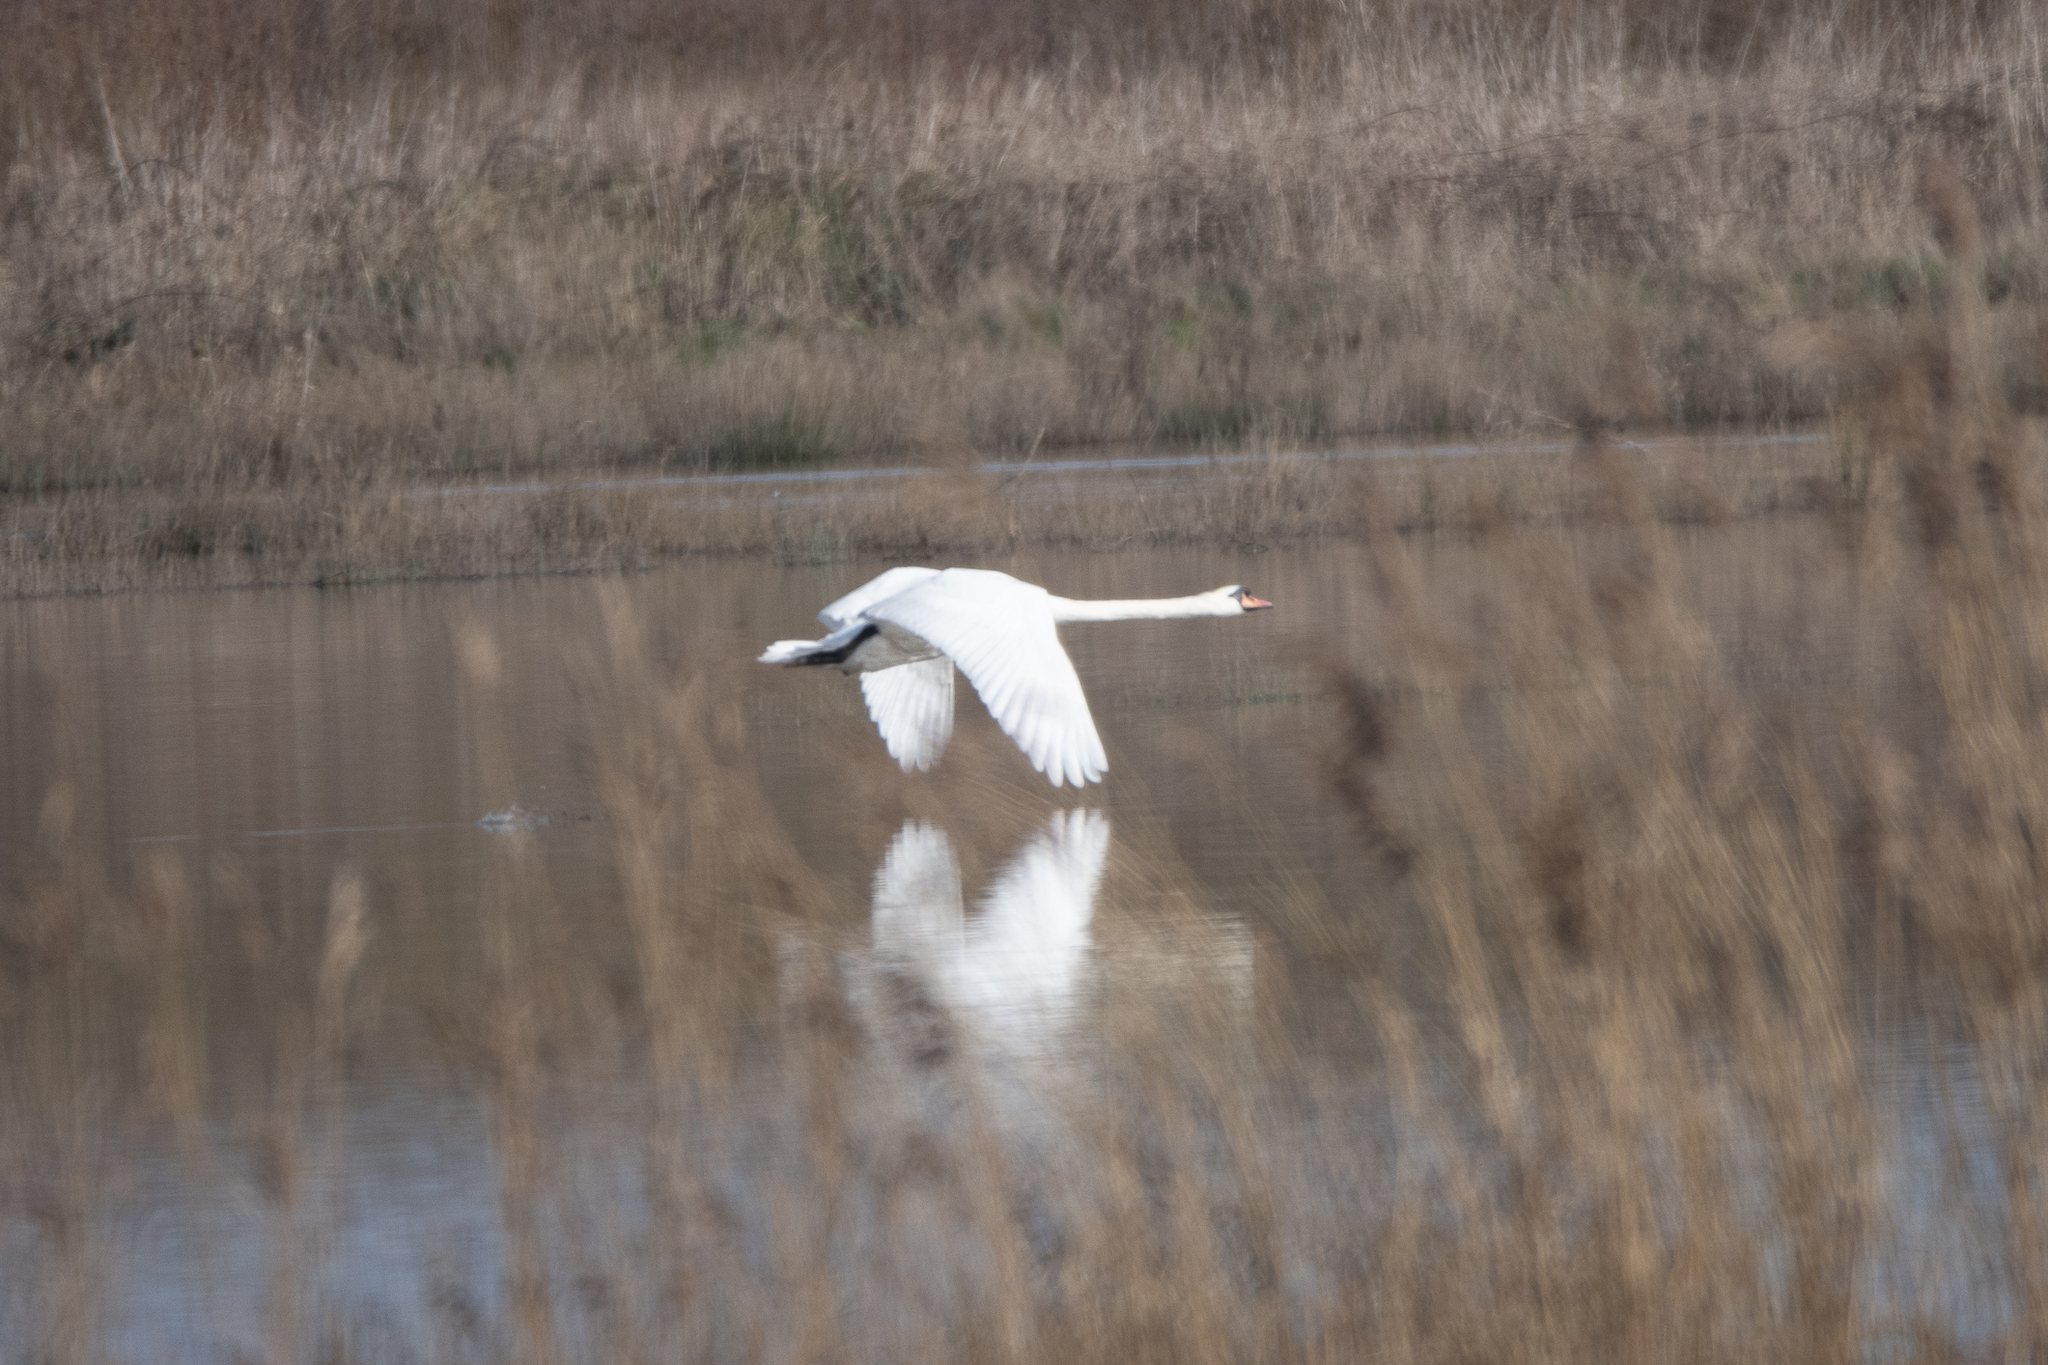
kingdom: Animalia
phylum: Chordata
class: Aves
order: Anseriformes
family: Anatidae
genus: Cygnus
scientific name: Cygnus olor
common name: Mute swan
